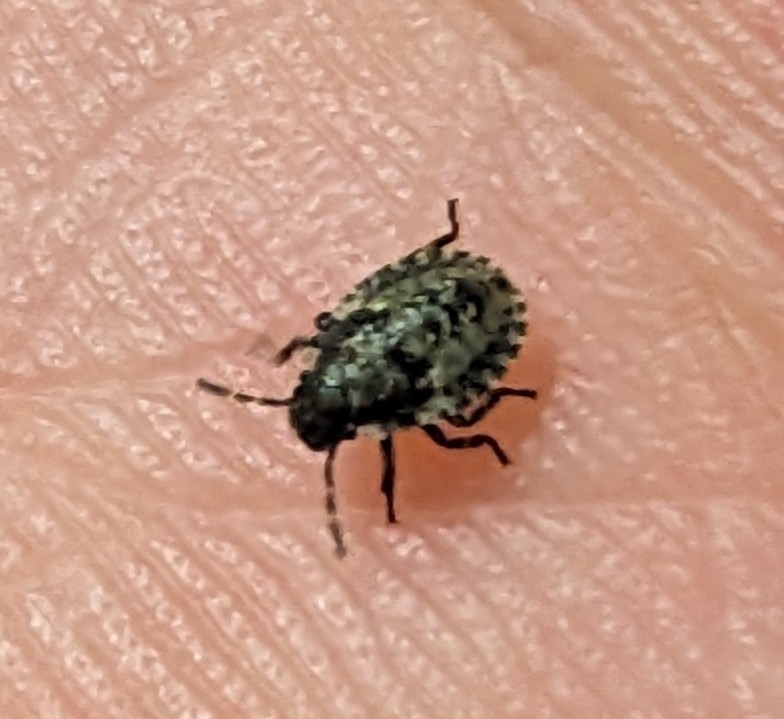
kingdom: Animalia
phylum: Arthropoda
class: Insecta
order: Hemiptera
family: Pentatomidae
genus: Pentatoma
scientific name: Pentatoma rufipes
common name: Forest bug
